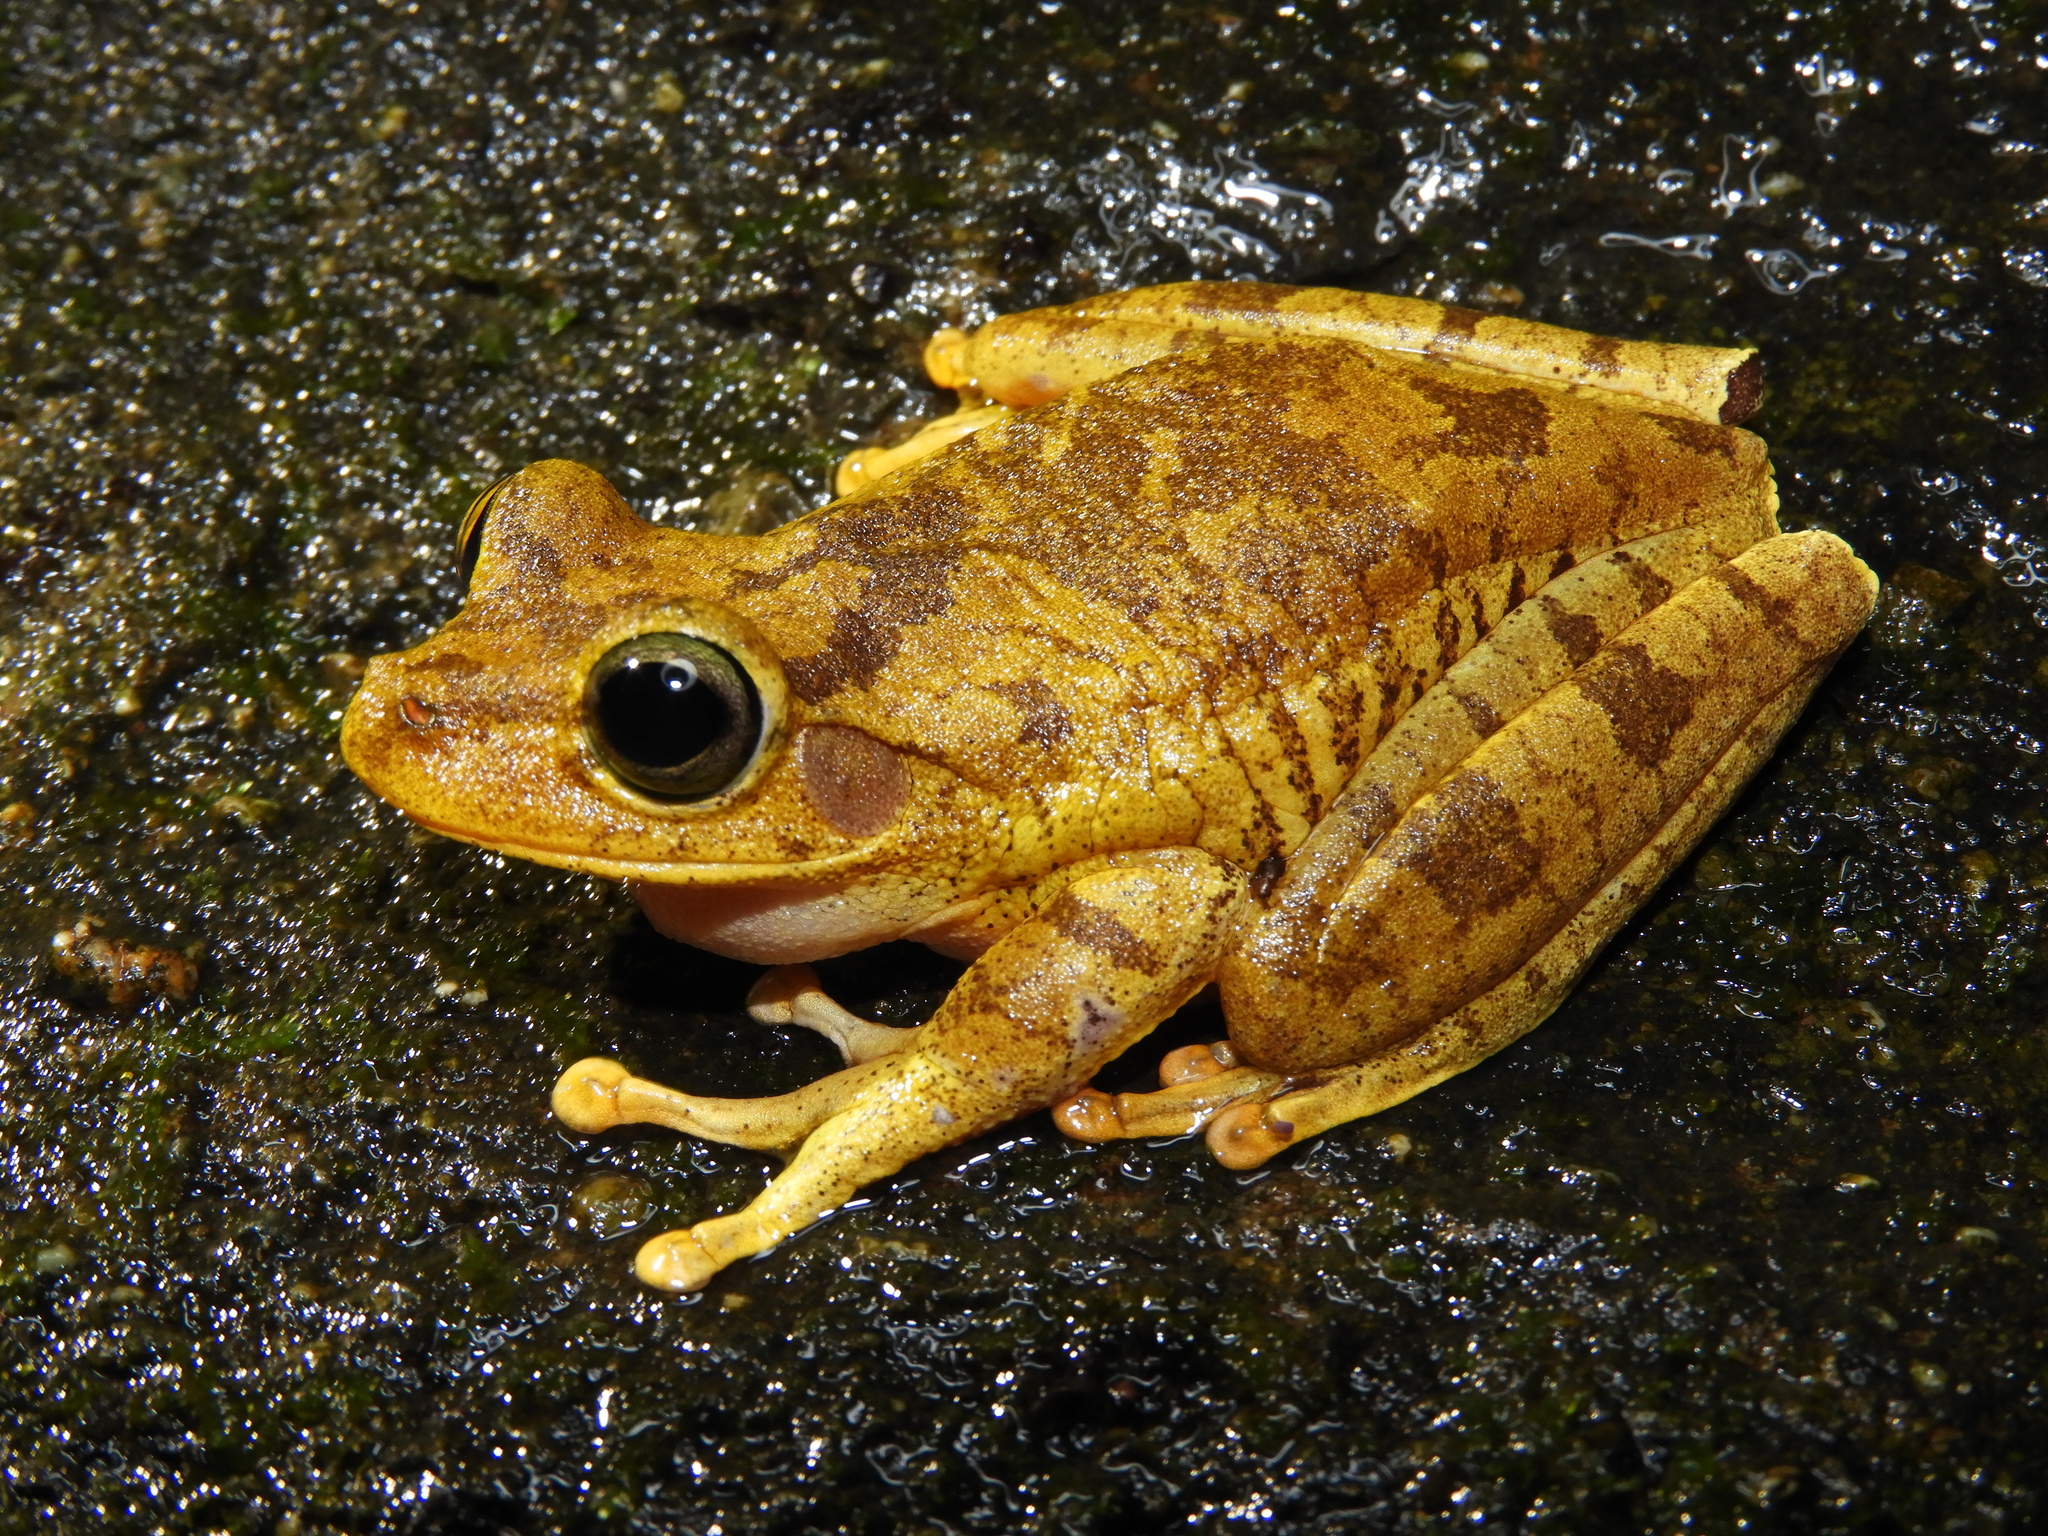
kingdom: Animalia
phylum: Chordata
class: Amphibia
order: Anura
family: Hylidae
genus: Boana
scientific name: Boana platanera
